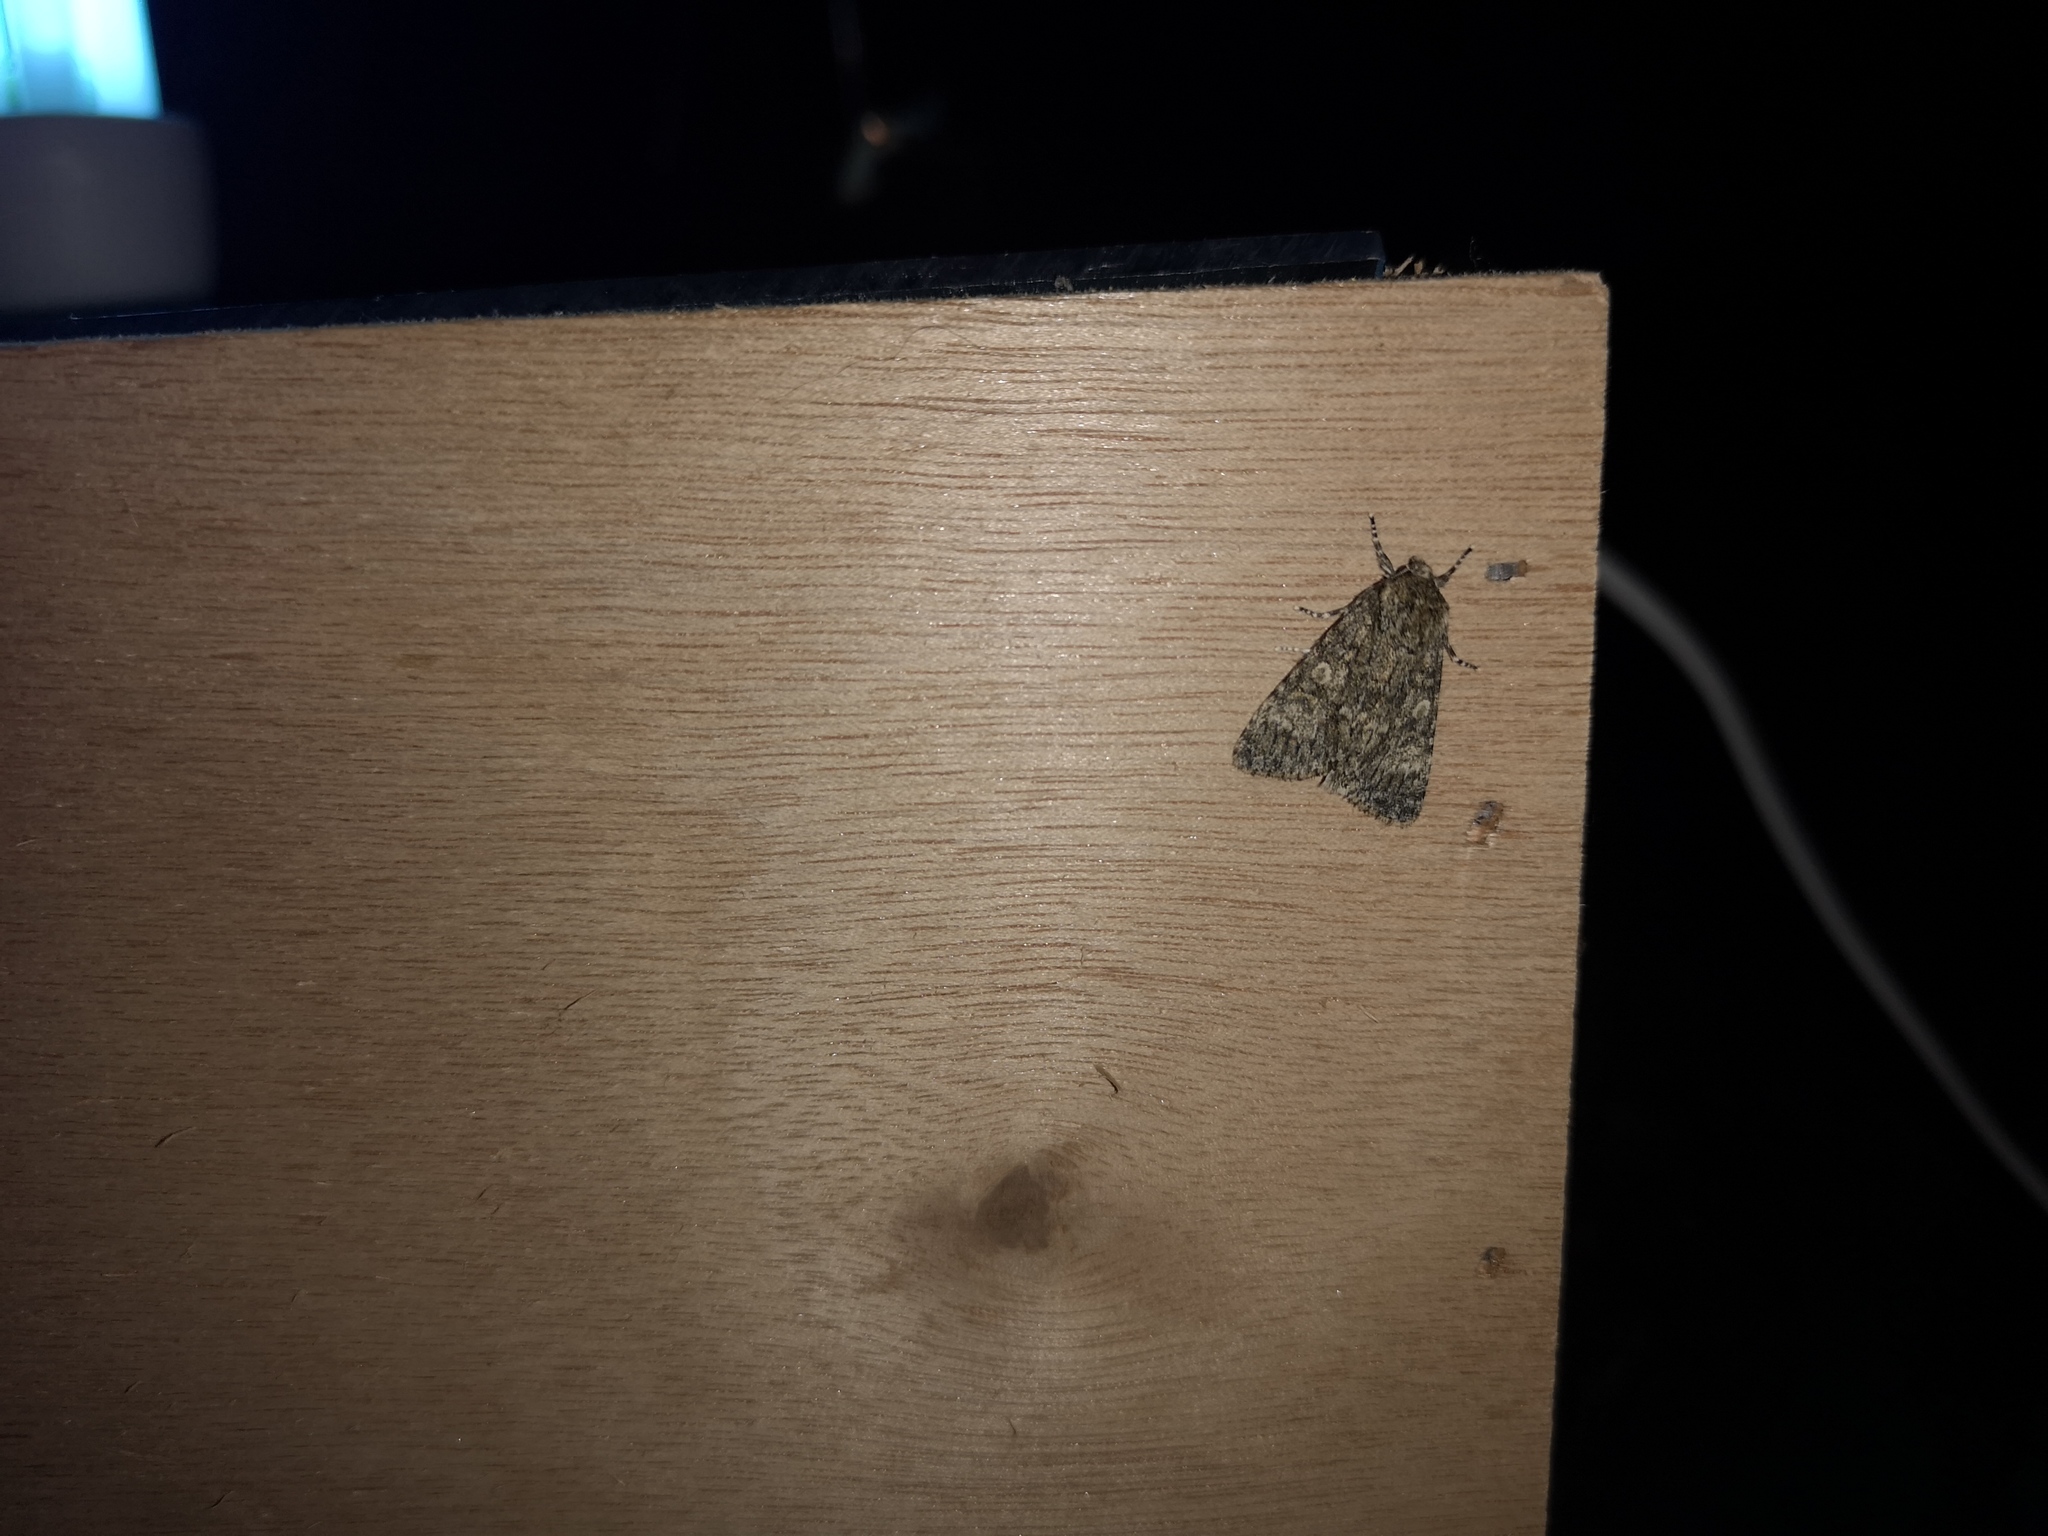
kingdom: Animalia
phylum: Arthropoda
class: Insecta
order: Lepidoptera
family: Noctuidae
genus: Acronicta
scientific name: Acronicta megacephala
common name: Poplar grey
